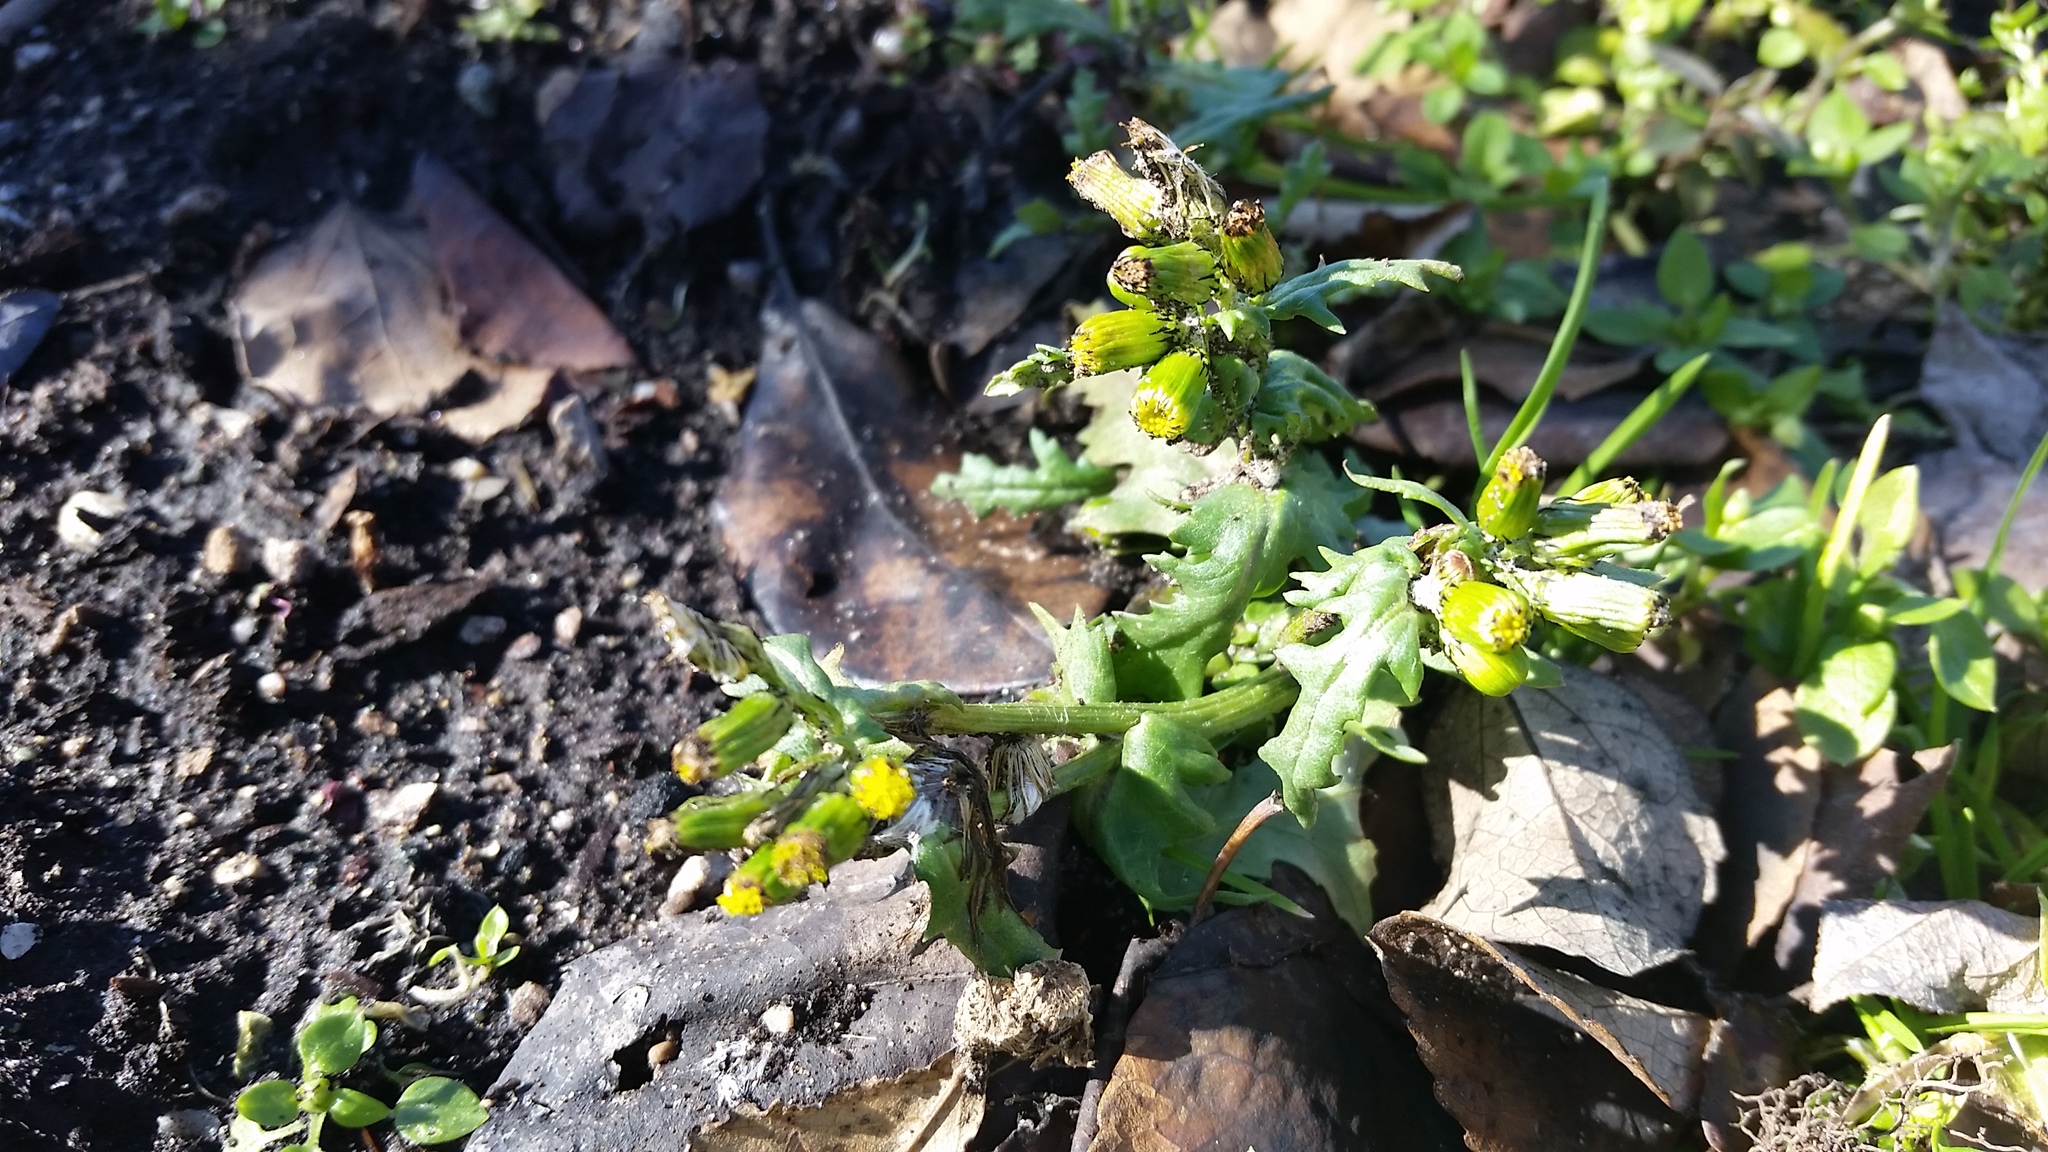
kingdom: Plantae
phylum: Tracheophyta
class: Magnoliopsida
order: Asterales
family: Asteraceae
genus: Senecio
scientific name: Senecio vulgaris
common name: Old-man-in-the-spring
